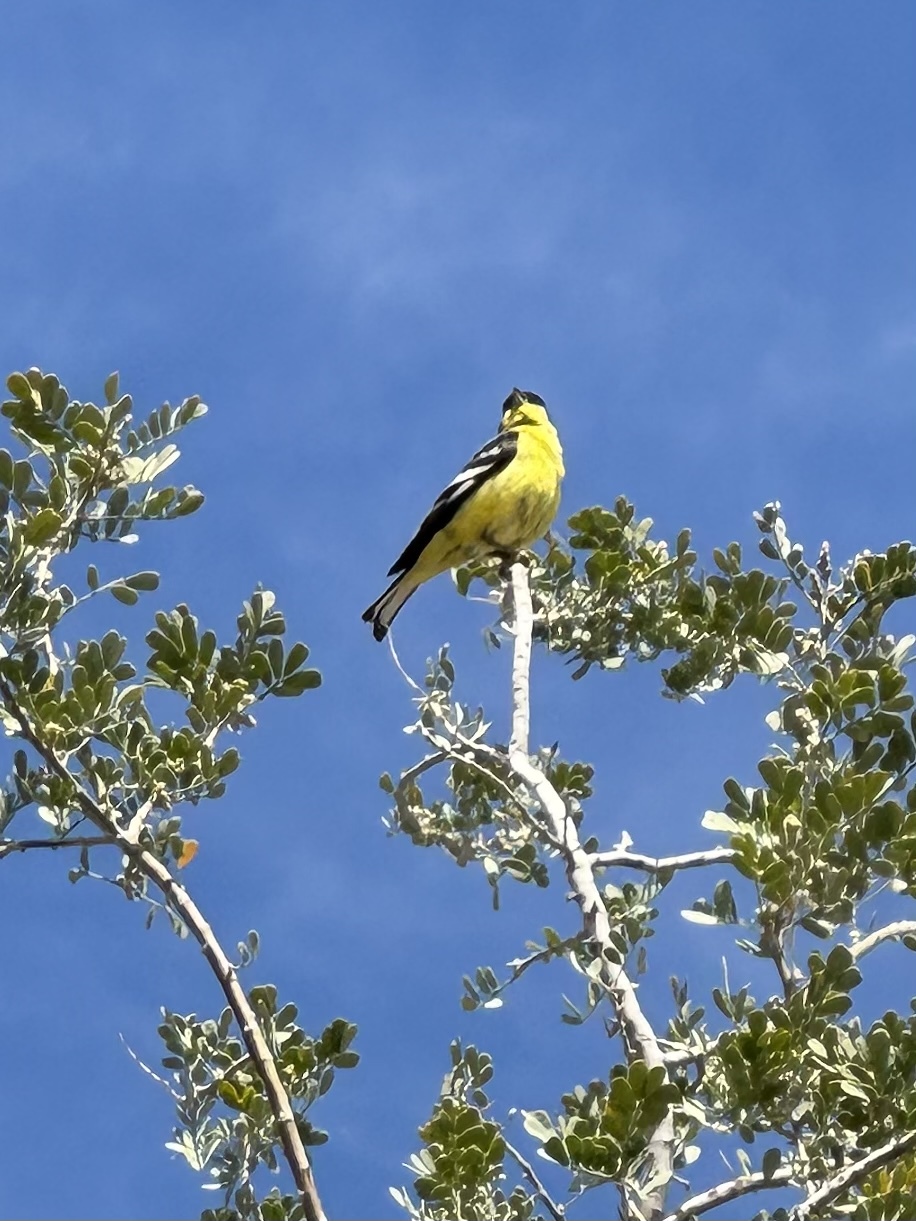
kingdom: Animalia
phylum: Chordata
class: Aves
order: Passeriformes
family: Fringillidae
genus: Spinus
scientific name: Spinus psaltria
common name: Lesser goldfinch
